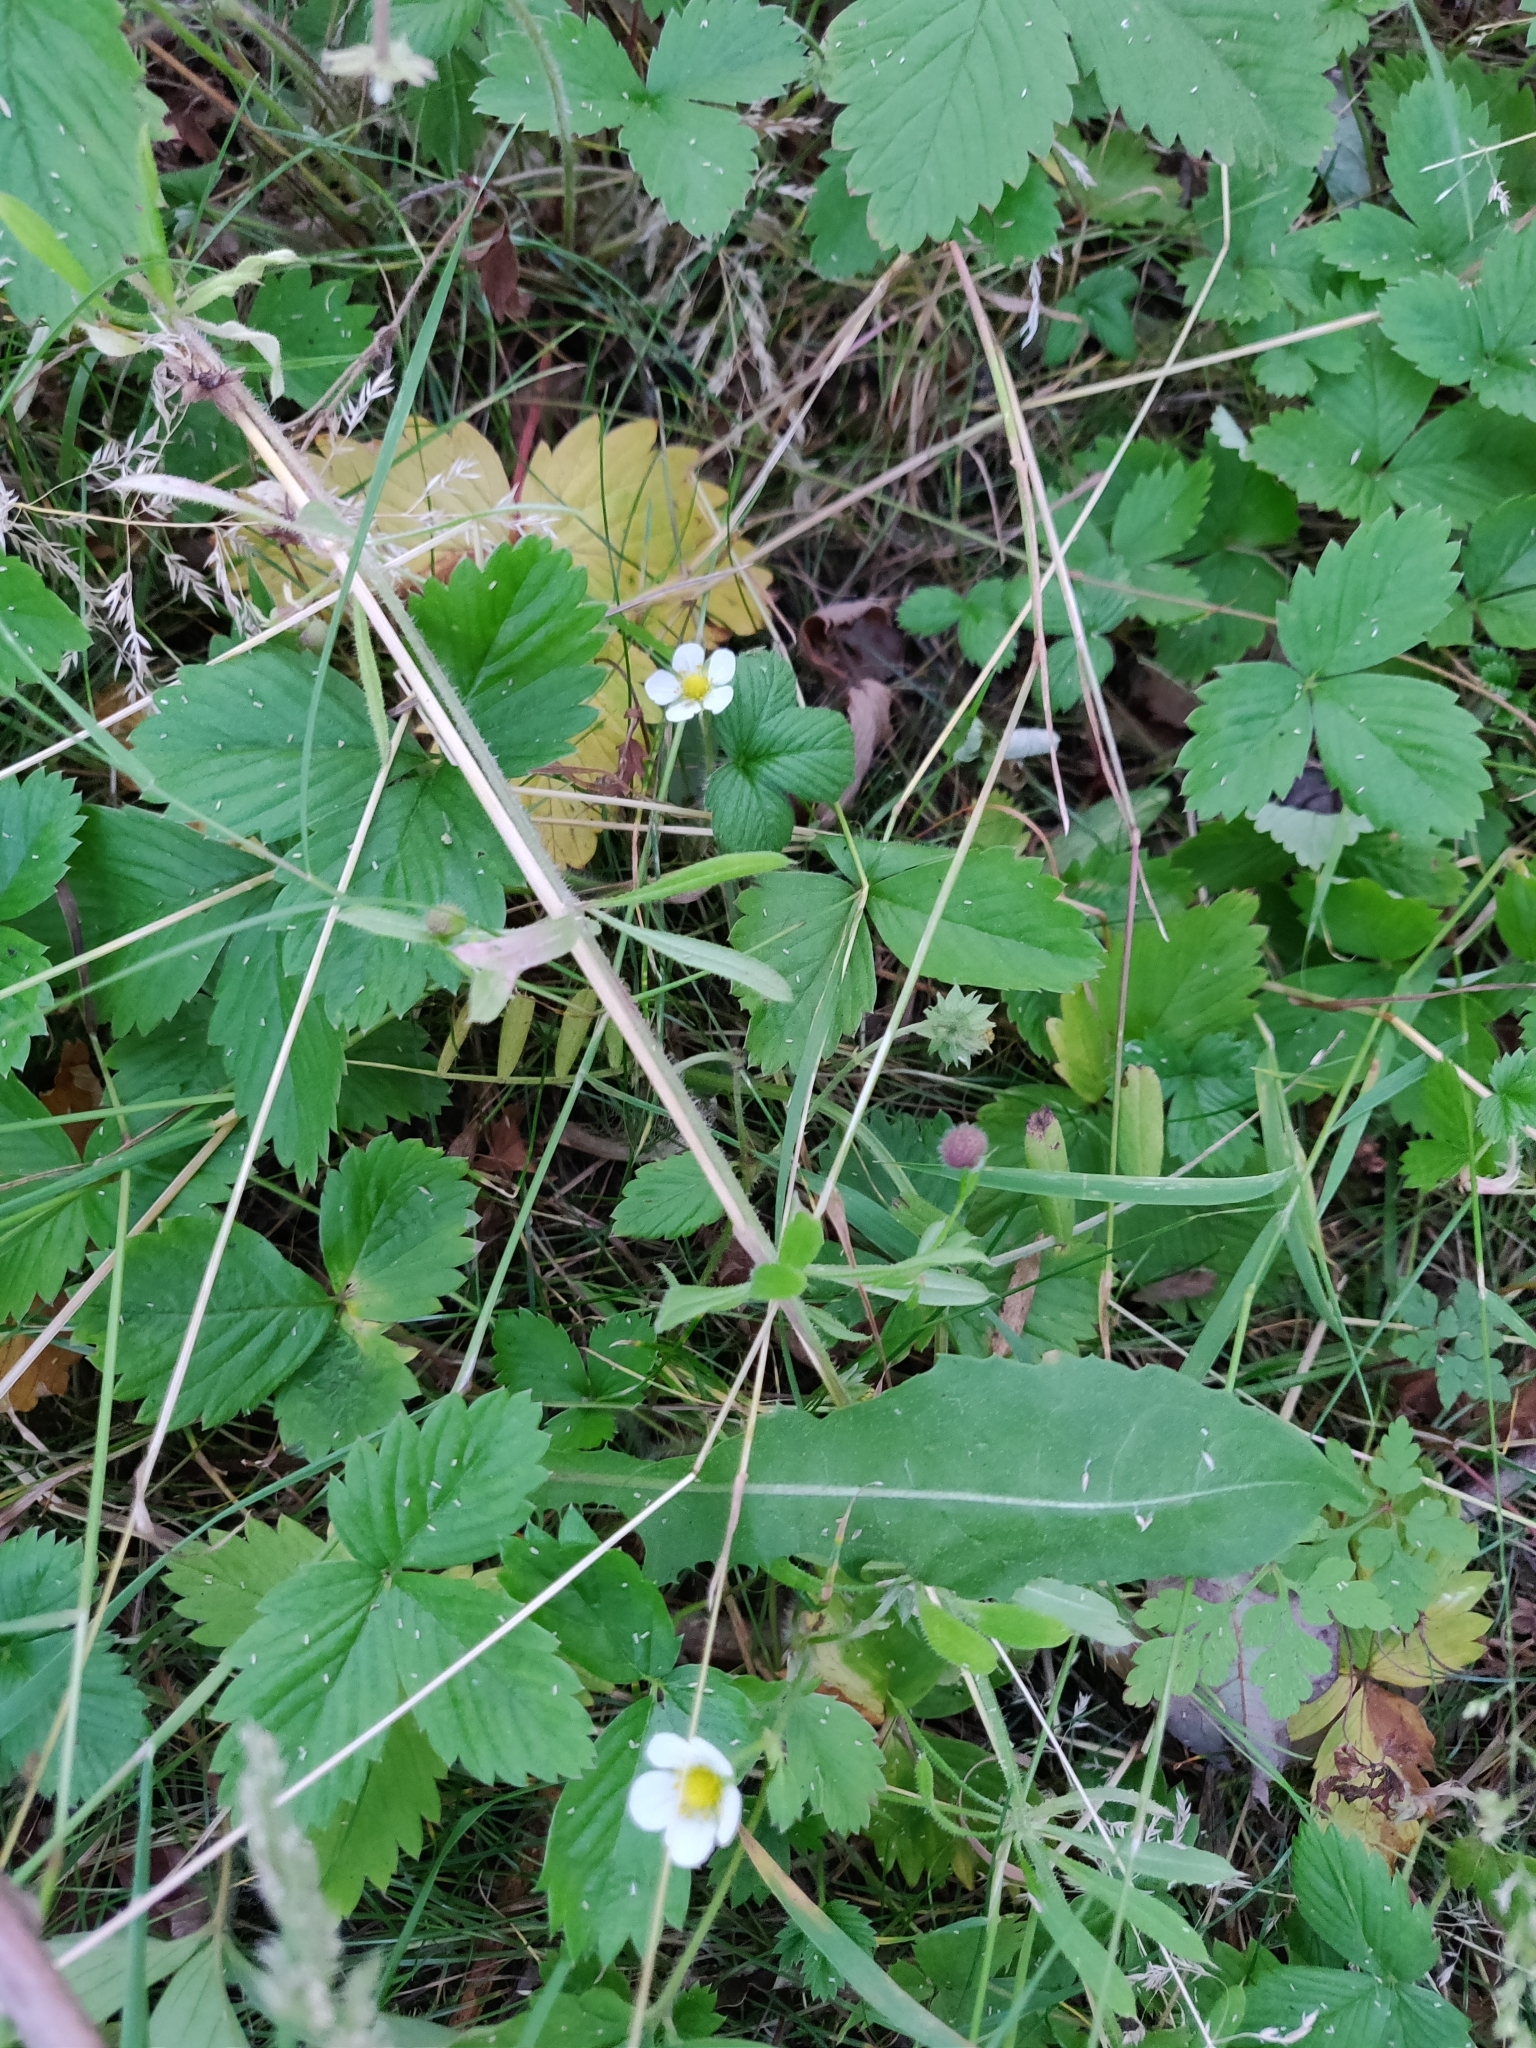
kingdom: Plantae
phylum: Tracheophyta
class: Magnoliopsida
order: Rosales
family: Rosaceae
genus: Fragaria
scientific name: Fragaria vesca
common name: Wild strawberry
